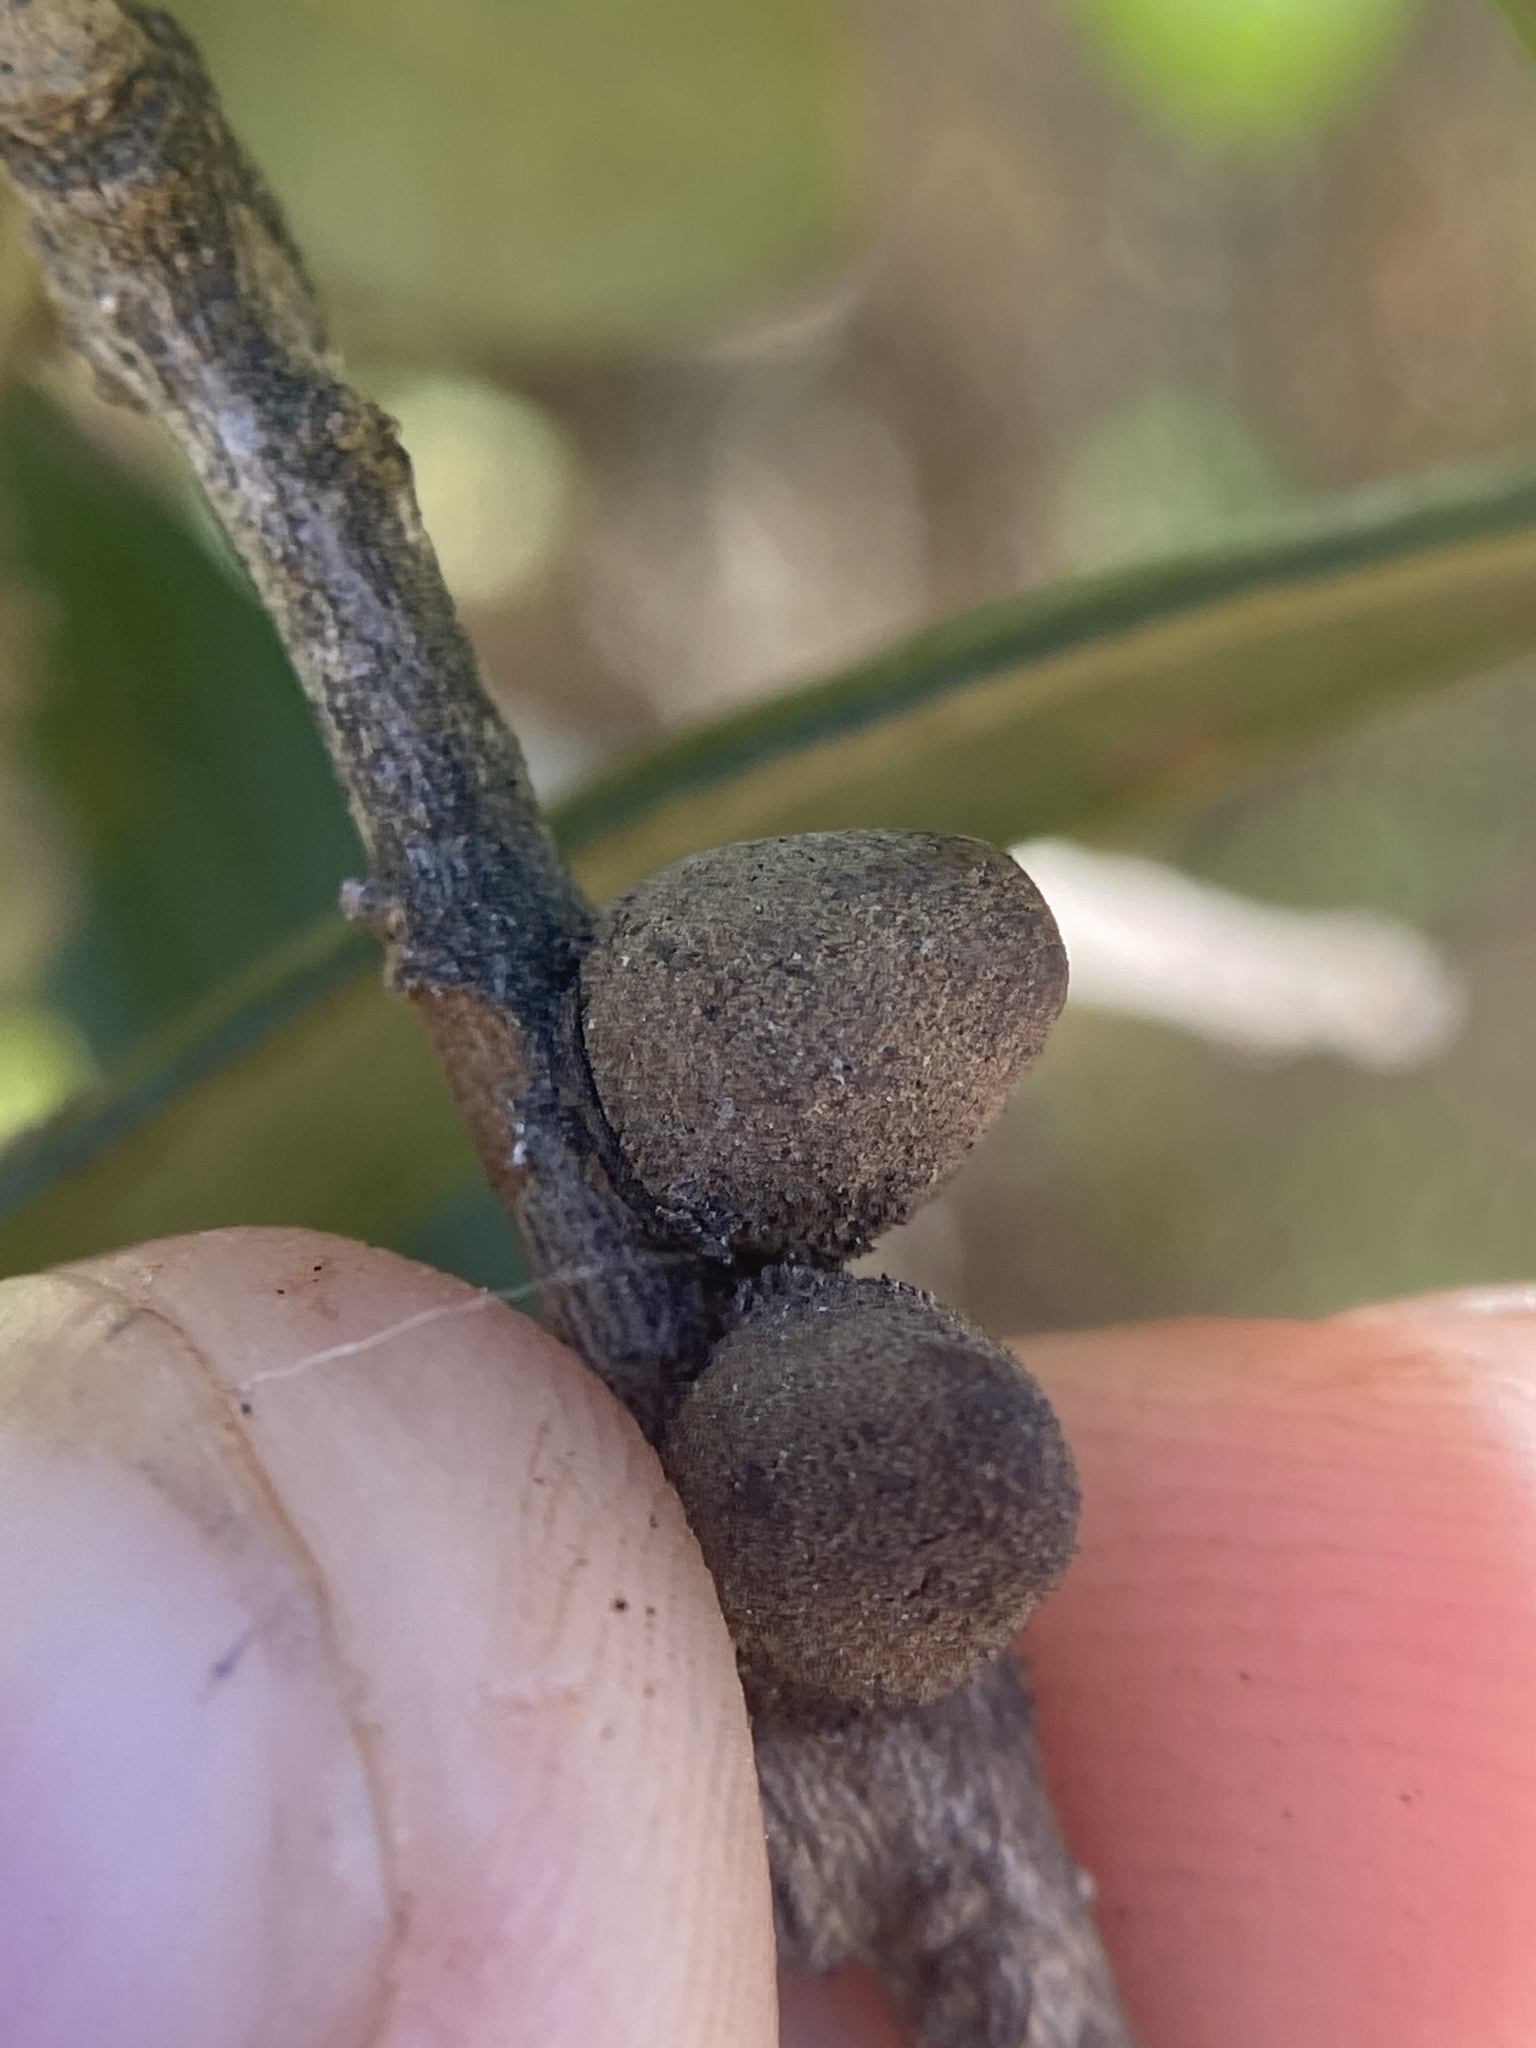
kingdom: Animalia
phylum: Arthropoda
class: Insecta
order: Hymenoptera
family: Cynipidae
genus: Disholcaspis
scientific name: Disholcaspis
